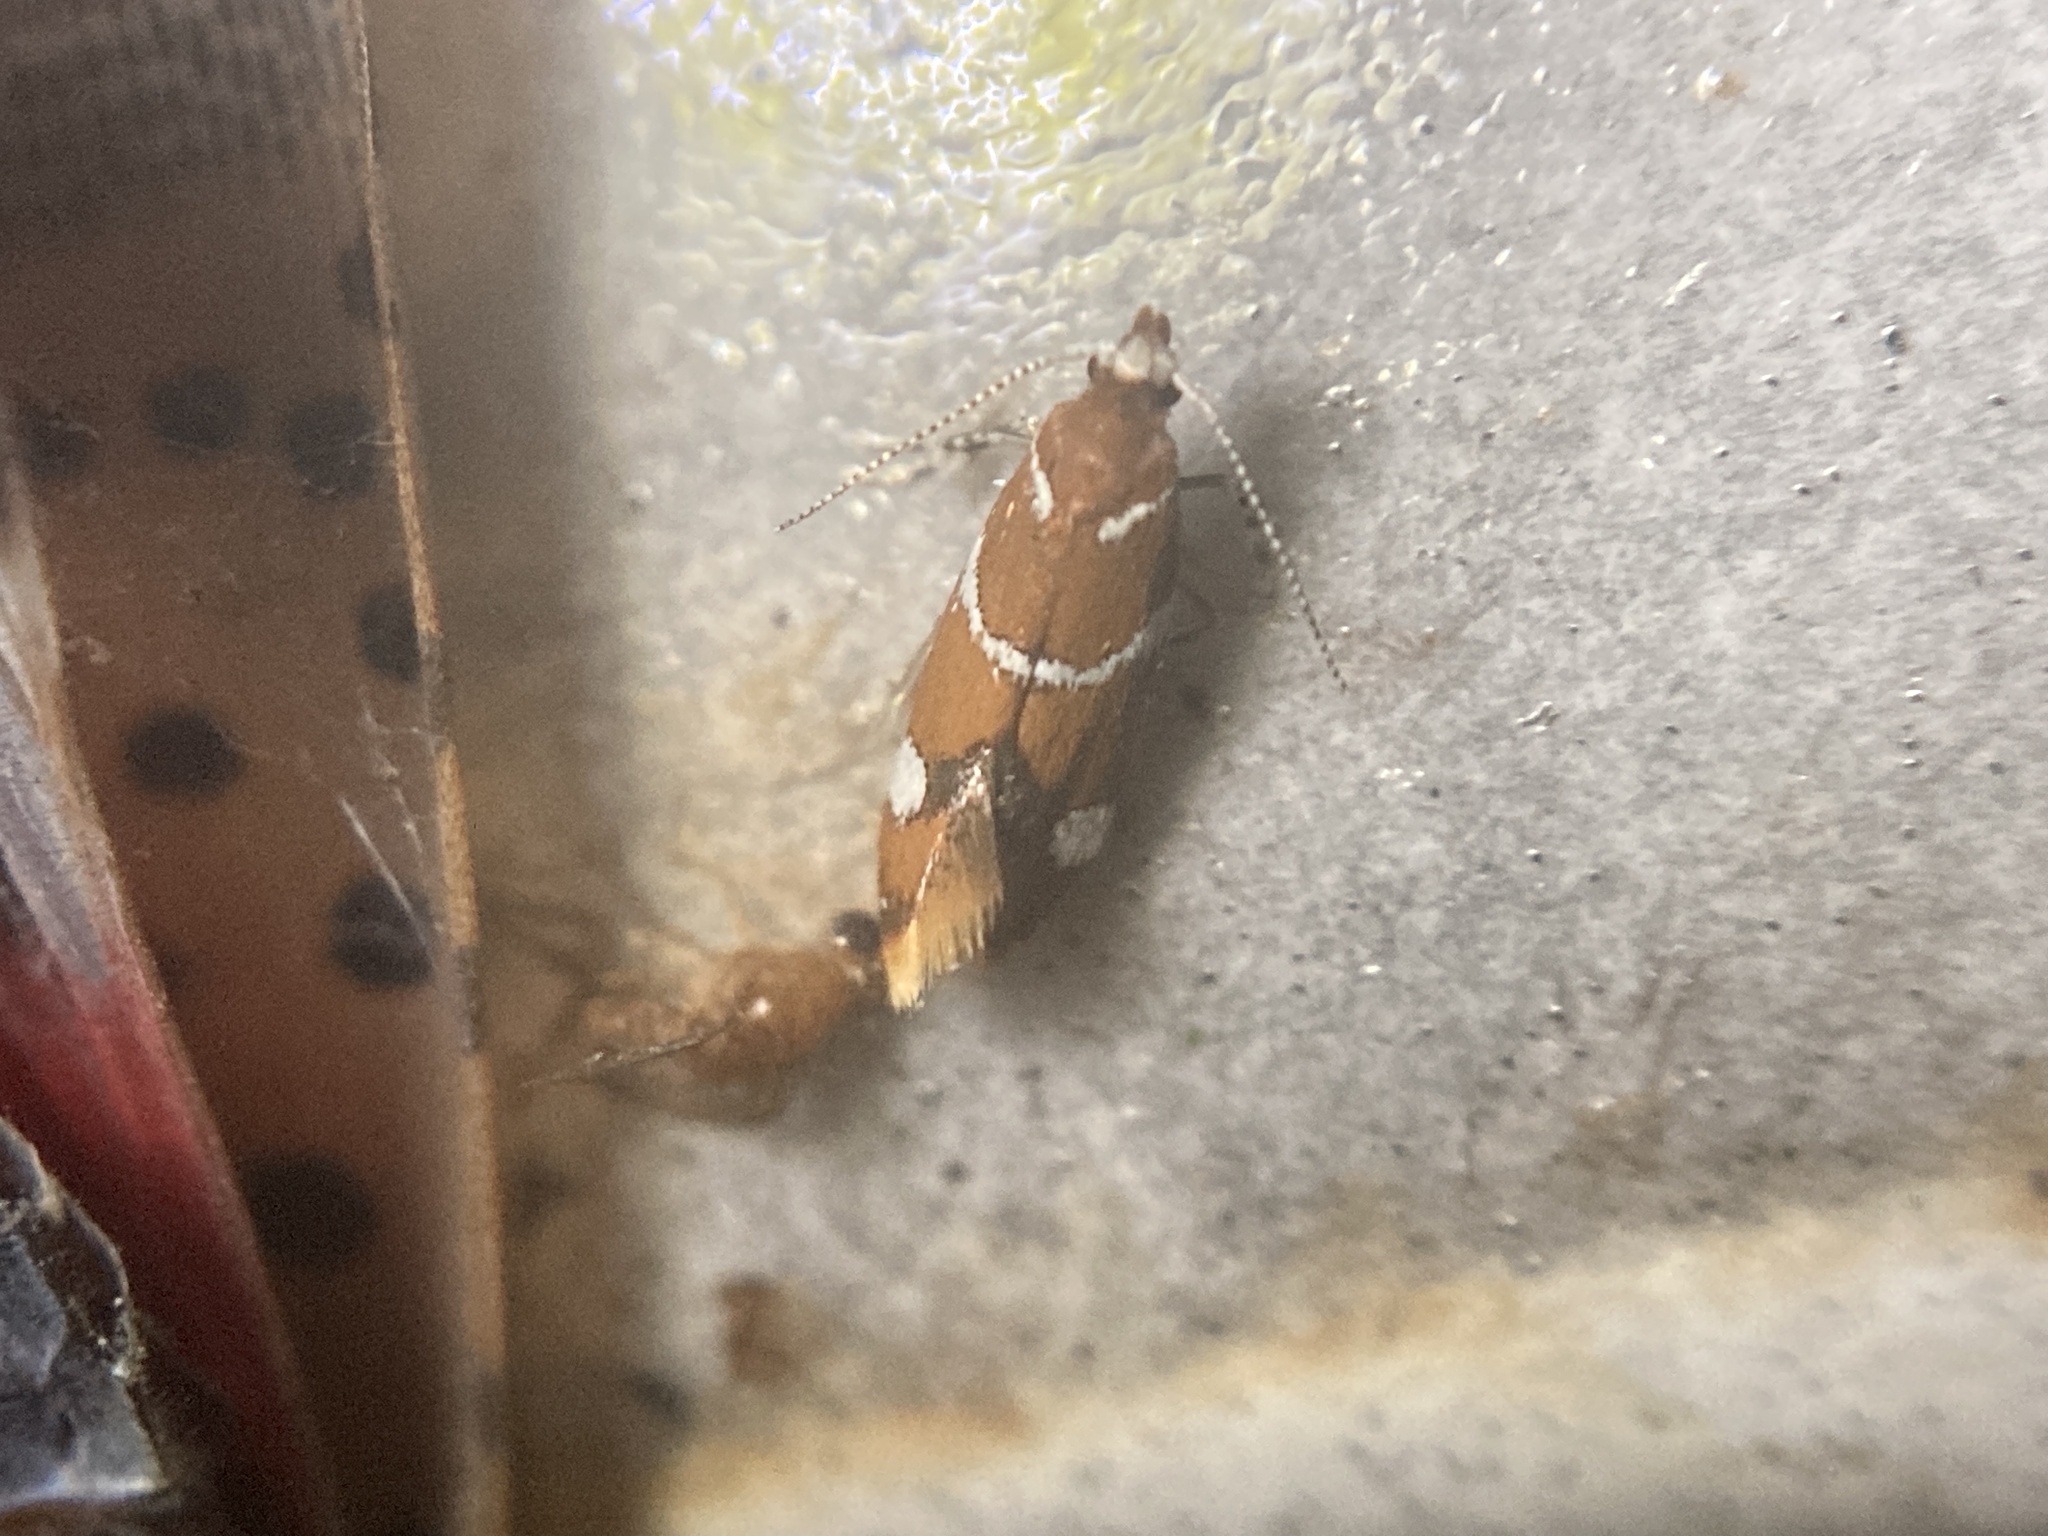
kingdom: Animalia
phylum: Arthropoda
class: Insecta
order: Lepidoptera
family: Oecophoridae
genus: Promalactis
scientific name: Promalactis suzukiella
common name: Moth
